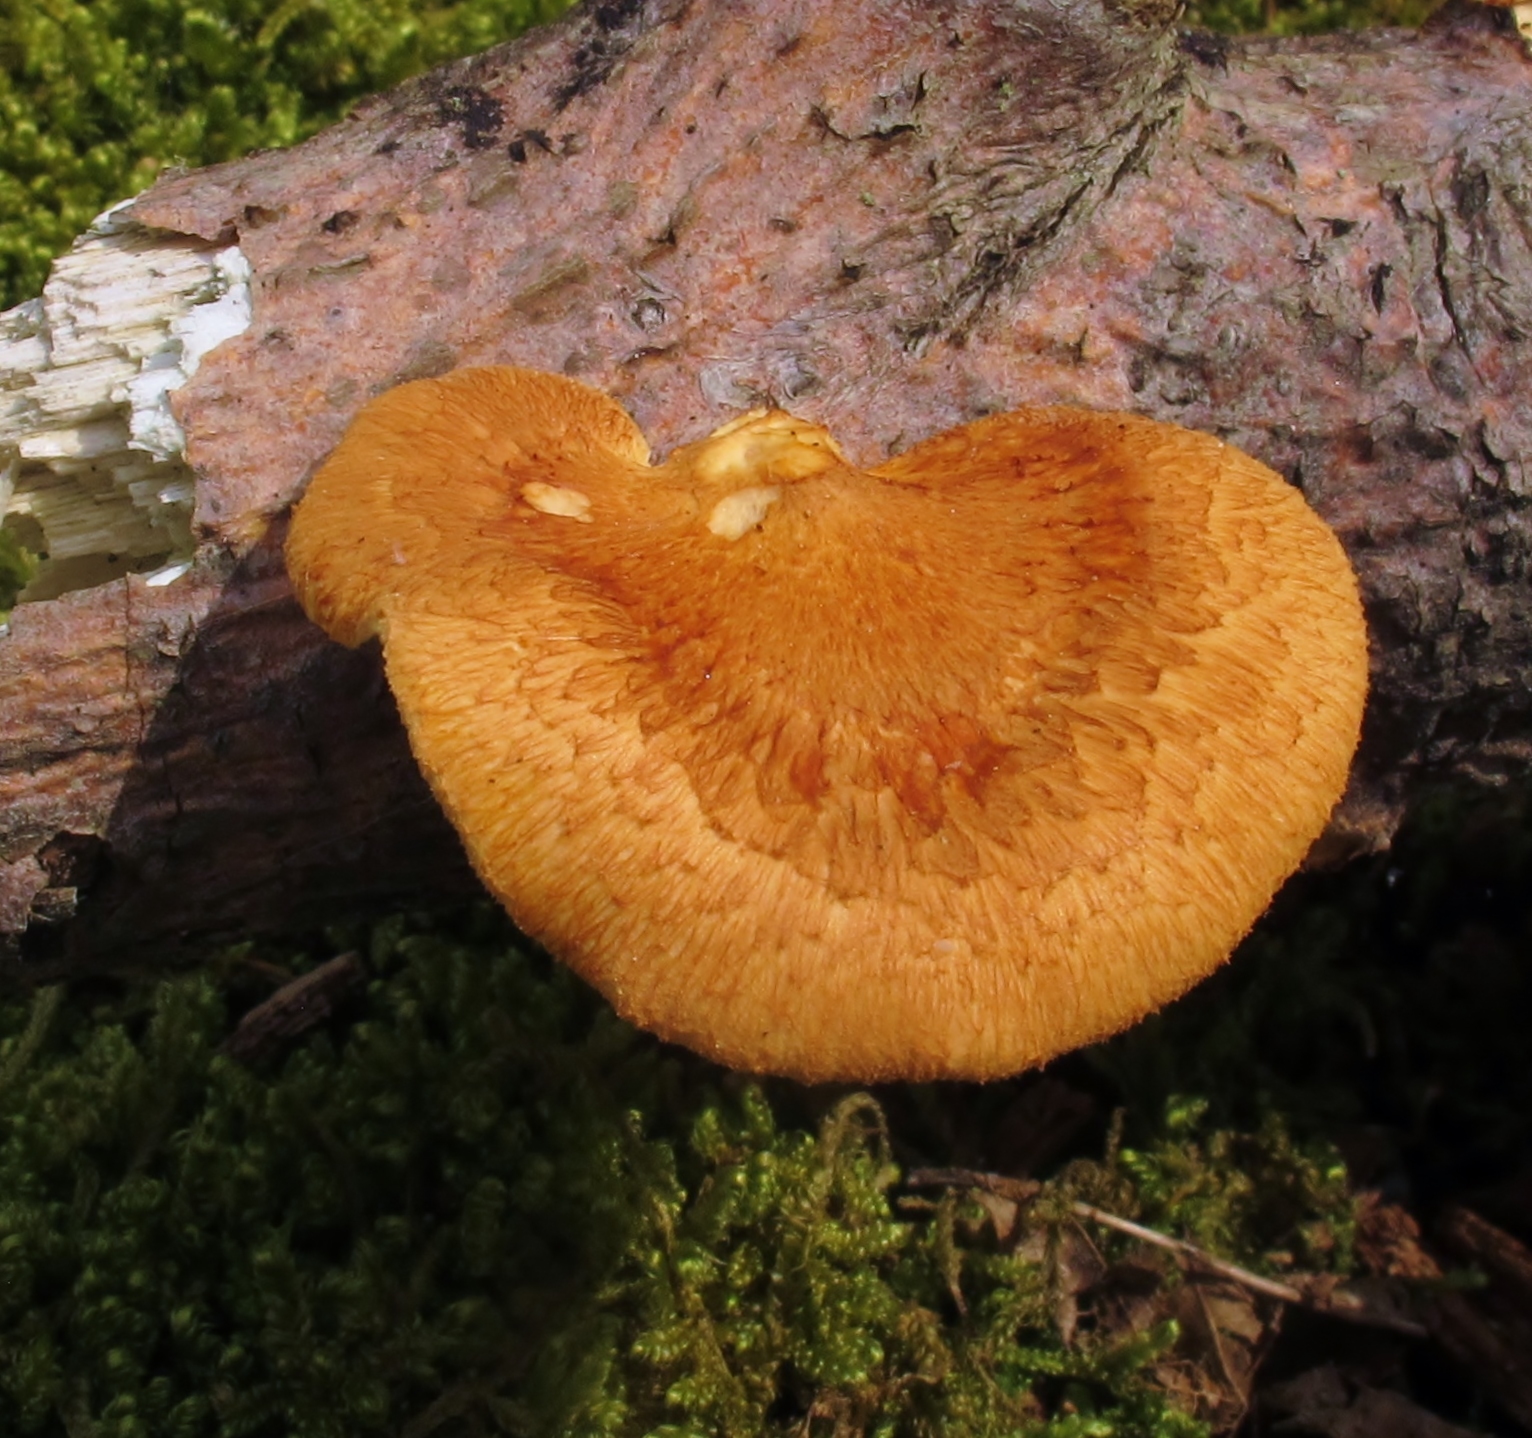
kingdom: Fungi
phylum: Basidiomycota
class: Agaricomycetes
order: Polyporales
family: Polyporaceae
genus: Neofavolus
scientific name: Neofavolus alveolaris
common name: Hexagonal-pored polypore
